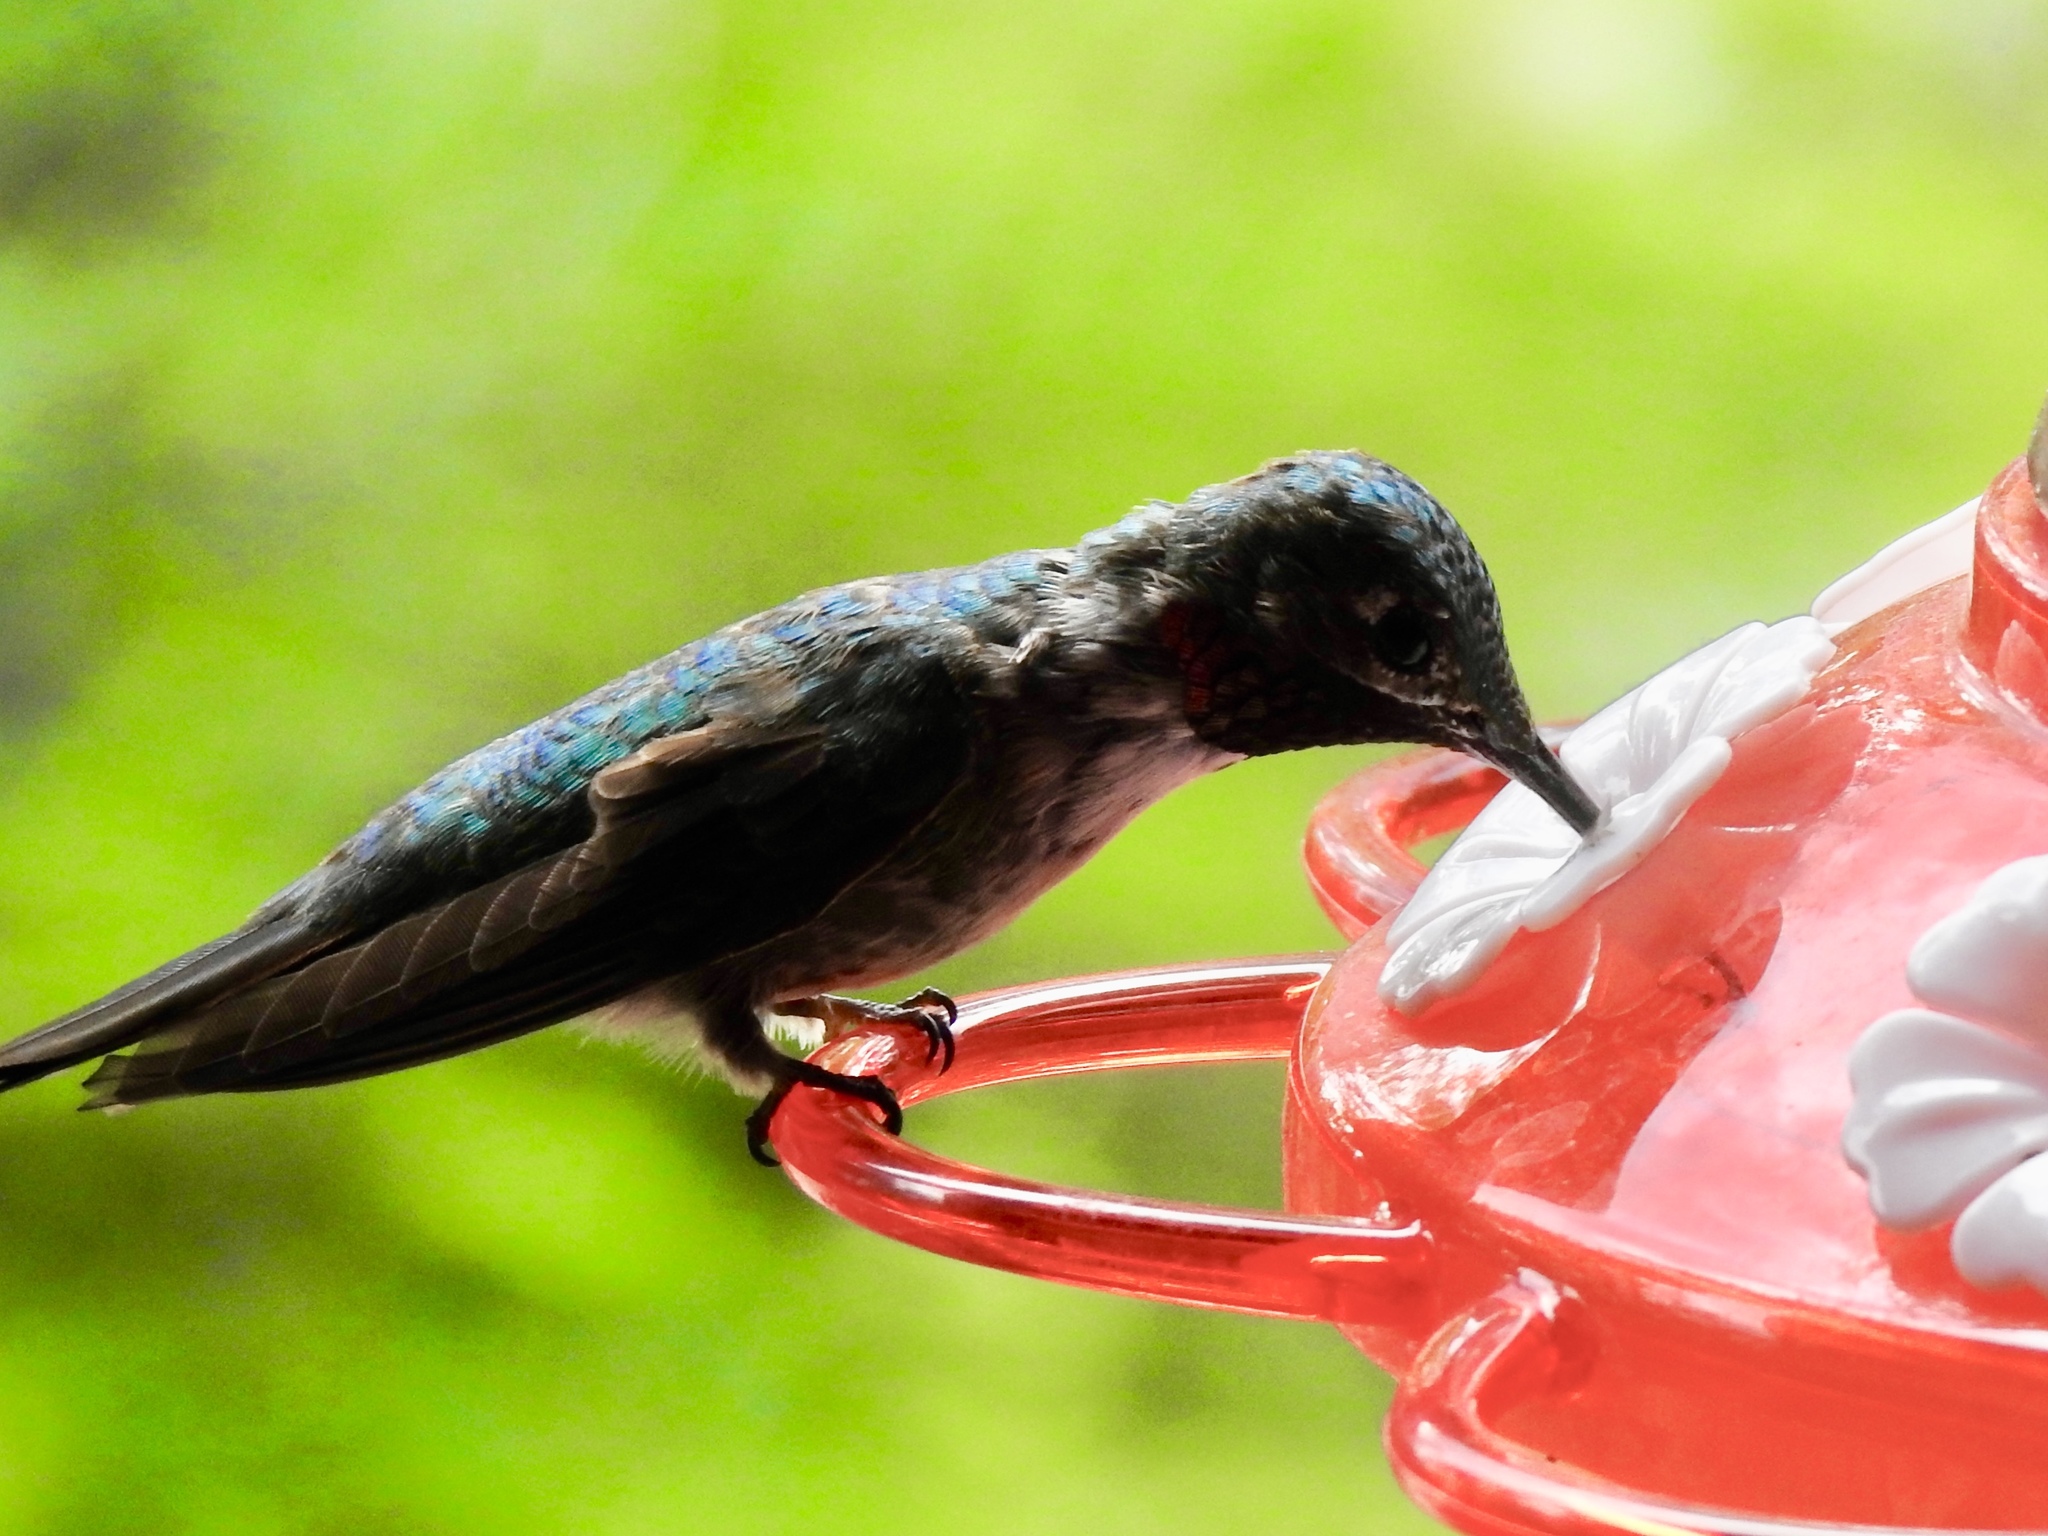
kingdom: Animalia
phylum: Chordata
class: Aves
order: Apodiformes
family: Trochilidae
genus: Selasphorus
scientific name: Selasphorus platycercus
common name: Broad-tailed hummingbird
